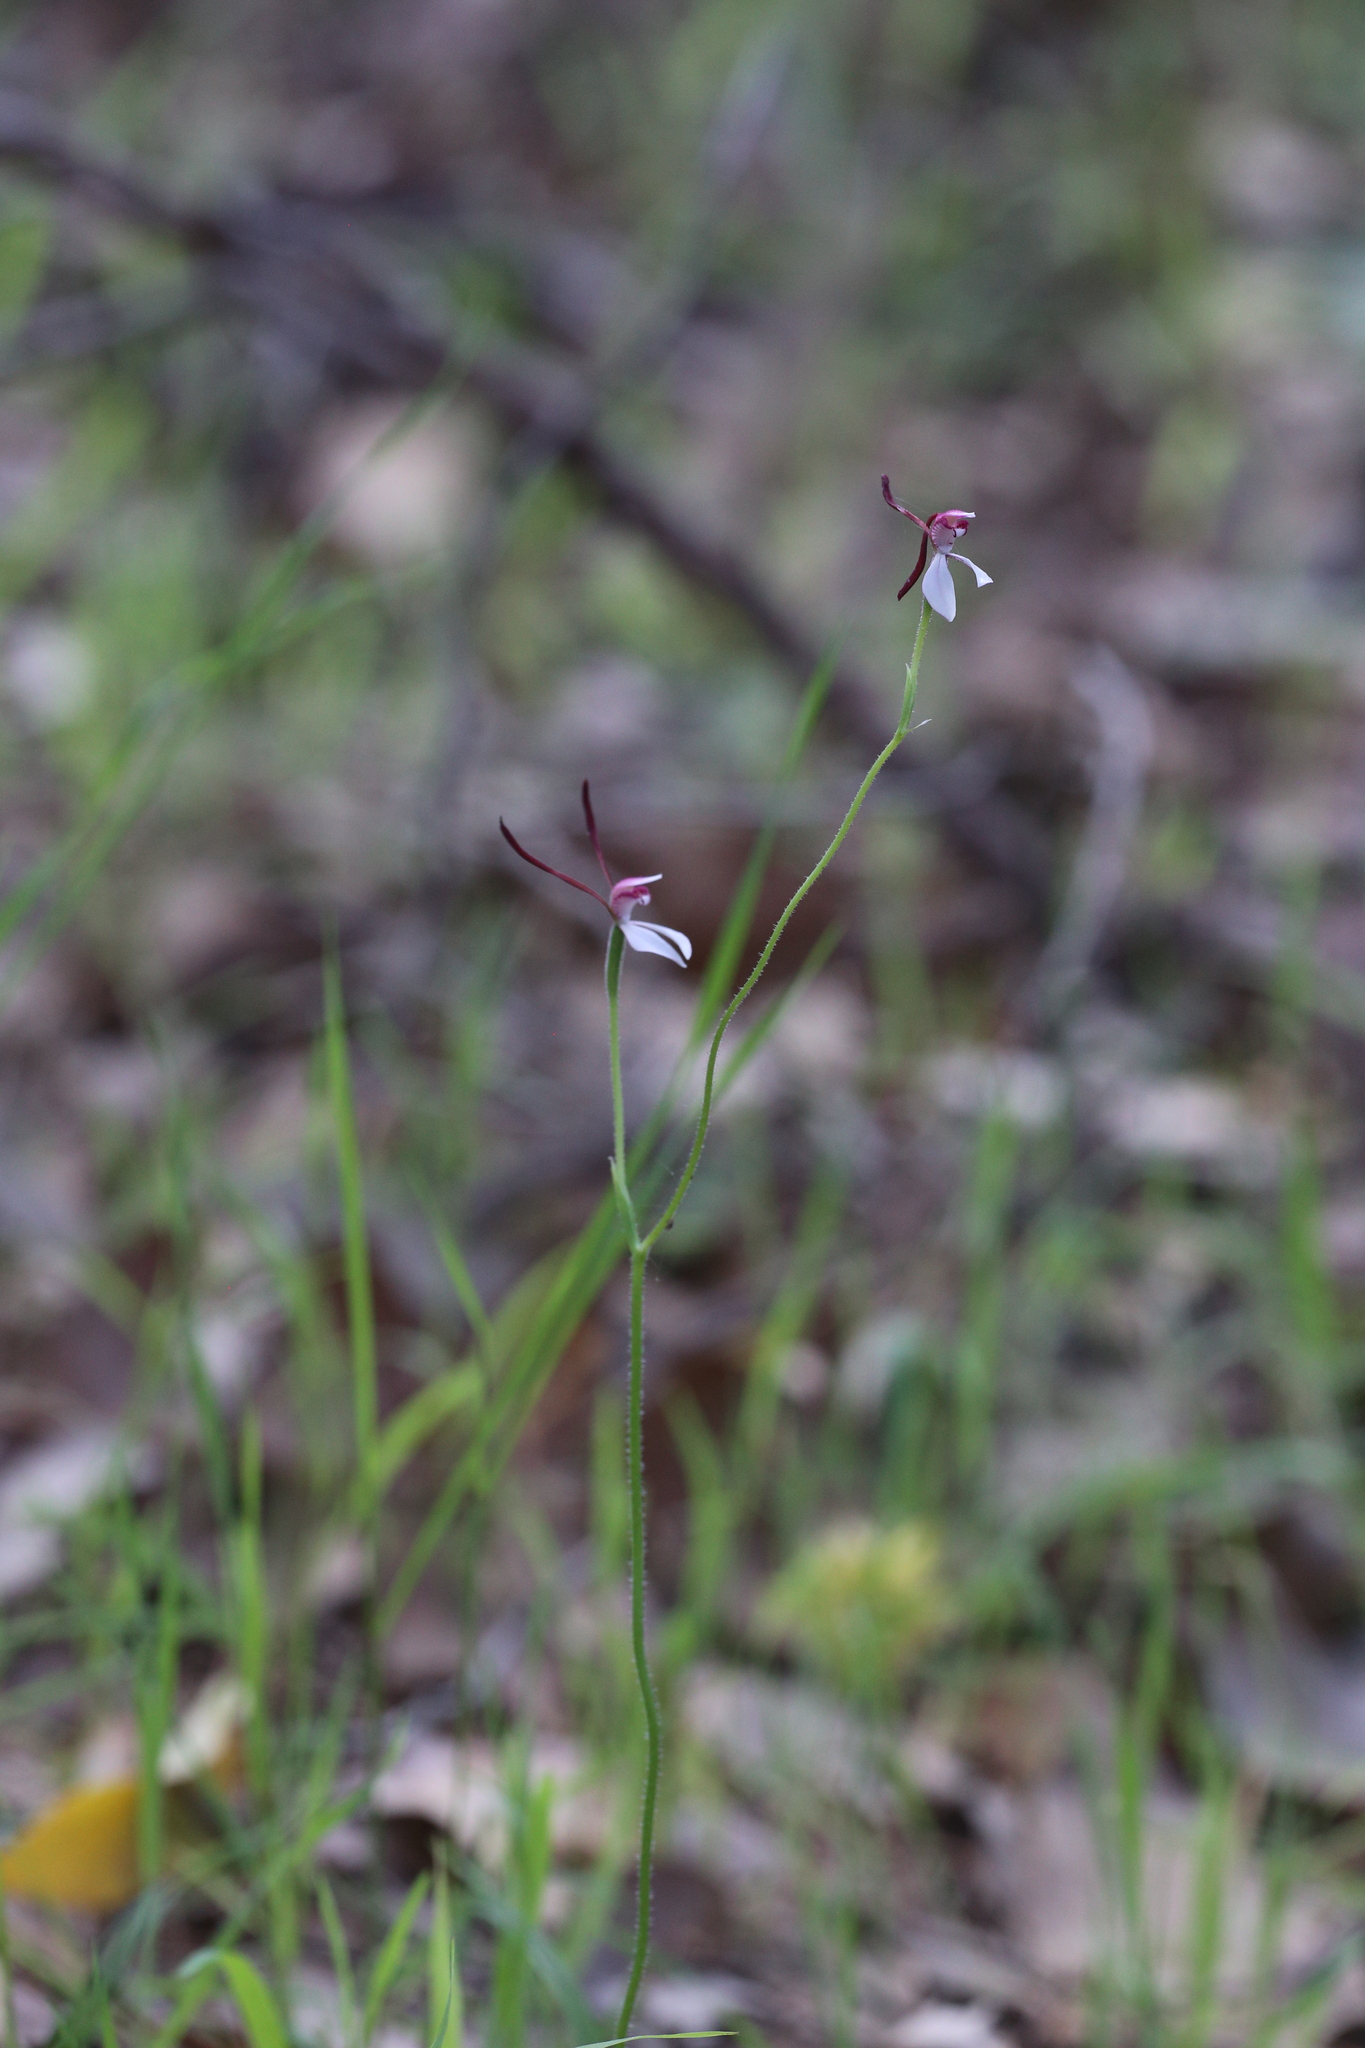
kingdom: Plantae
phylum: Tracheophyta
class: Liliopsida
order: Asparagales
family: Orchidaceae
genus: Leptoceras
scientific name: Leptoceras menziesii
